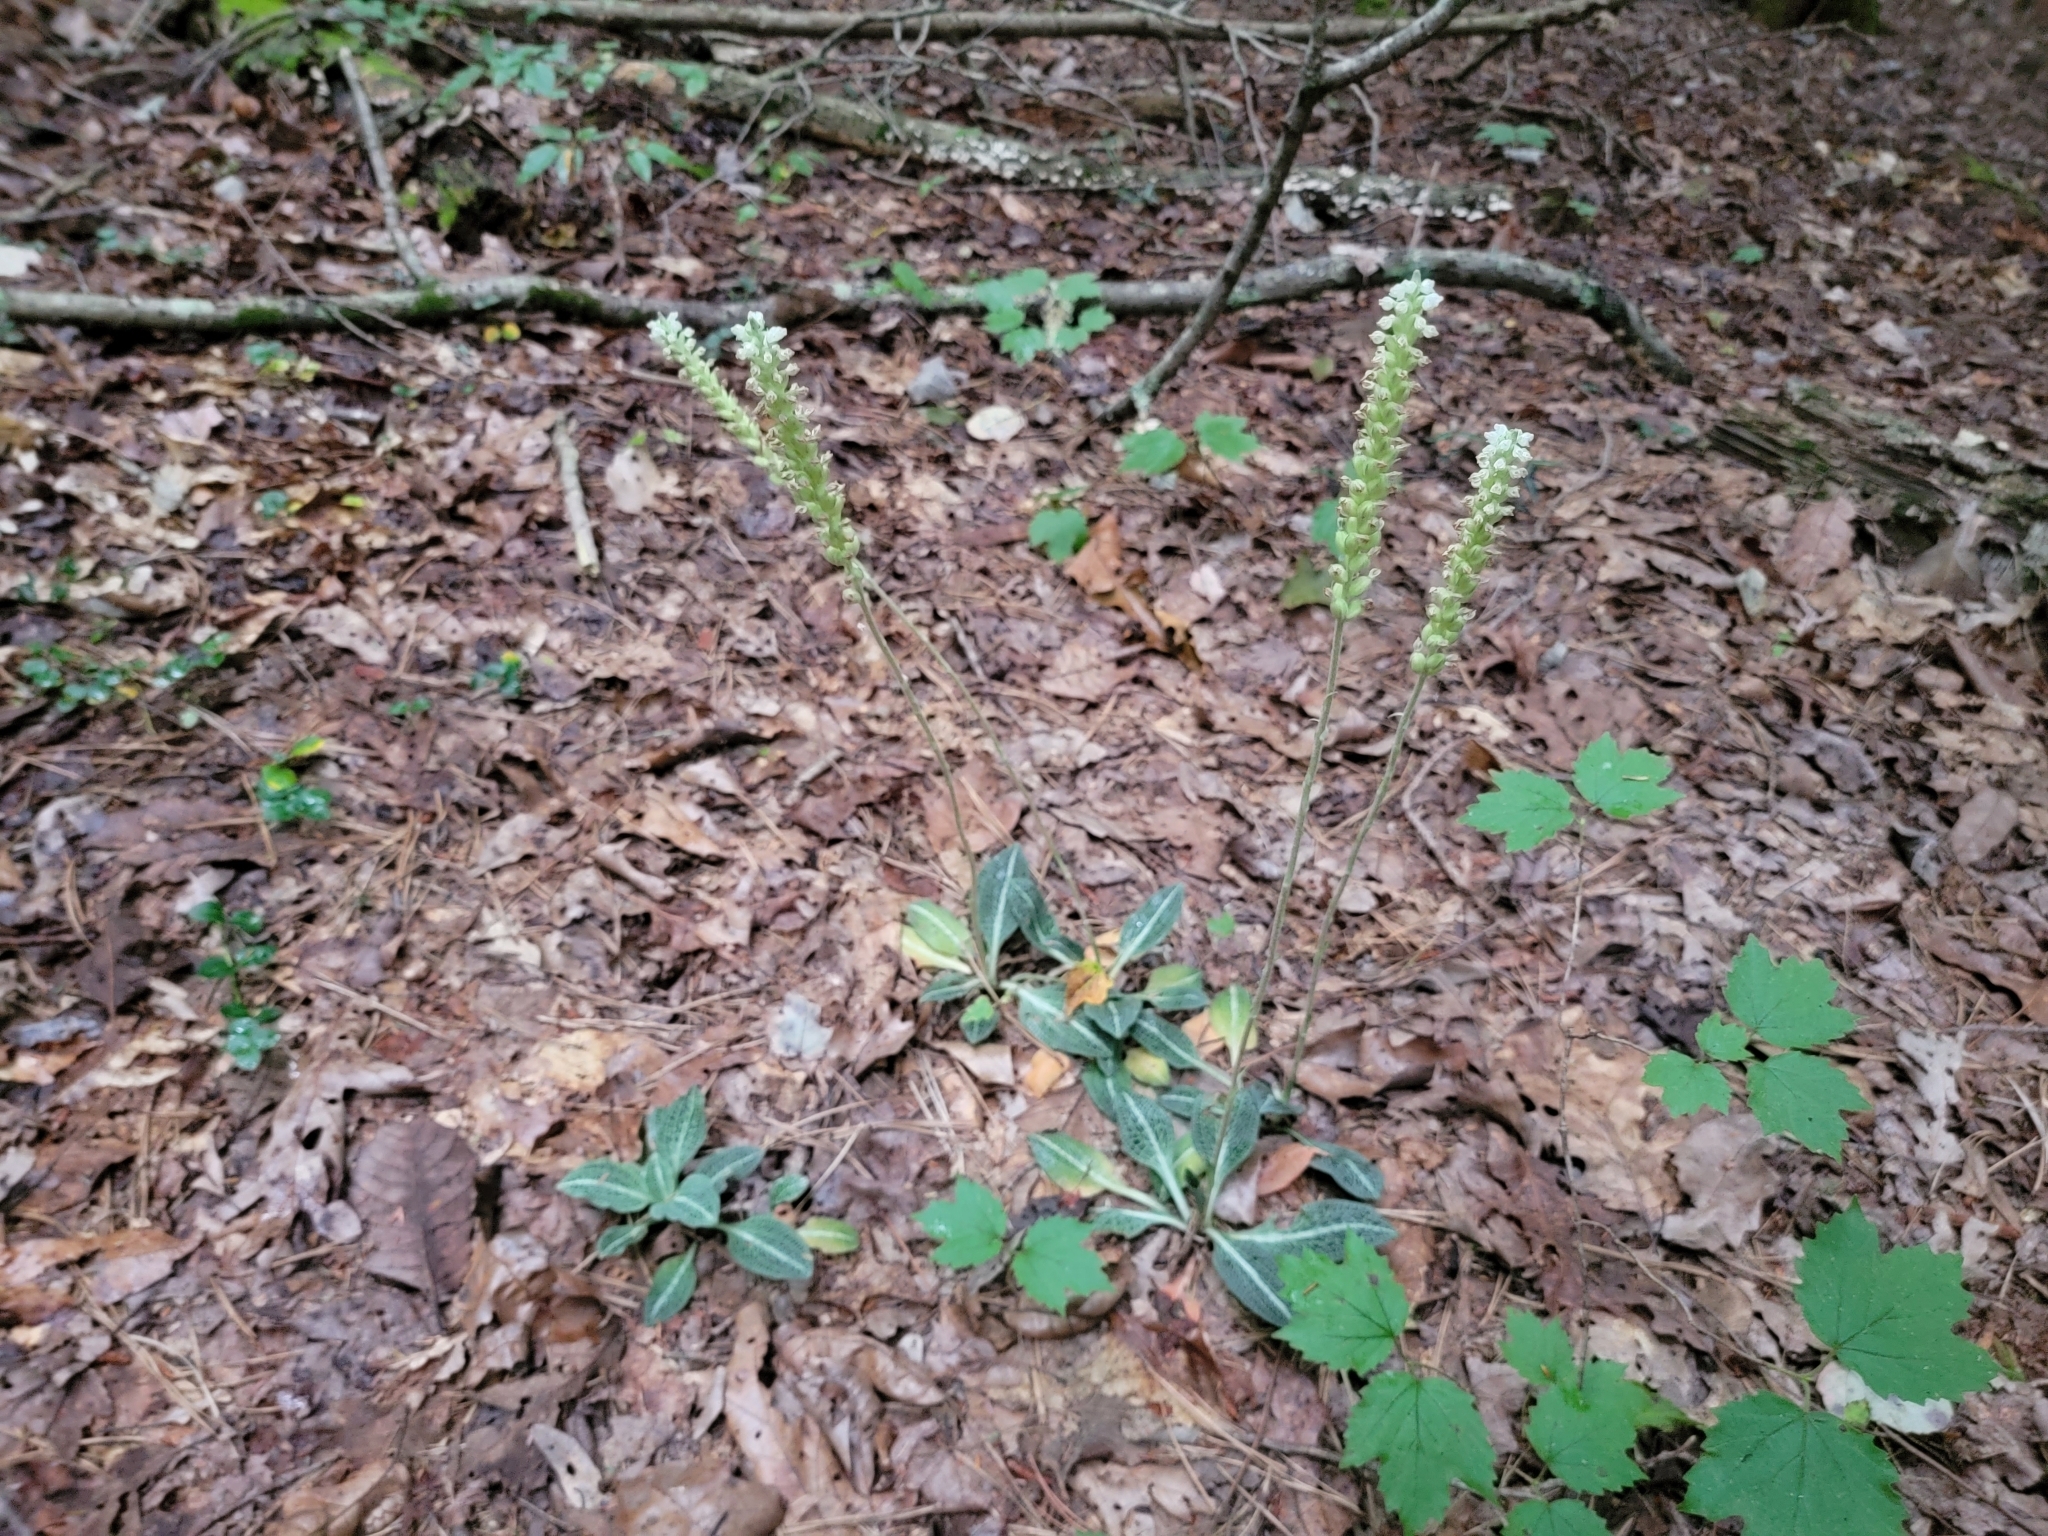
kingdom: Plantae
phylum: Tracheophyta
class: Liliopsida
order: Asparagales
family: Orchidaceae
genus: Goodyera
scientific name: Goodyera pubescens
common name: Downy rattlesnake-plantain
